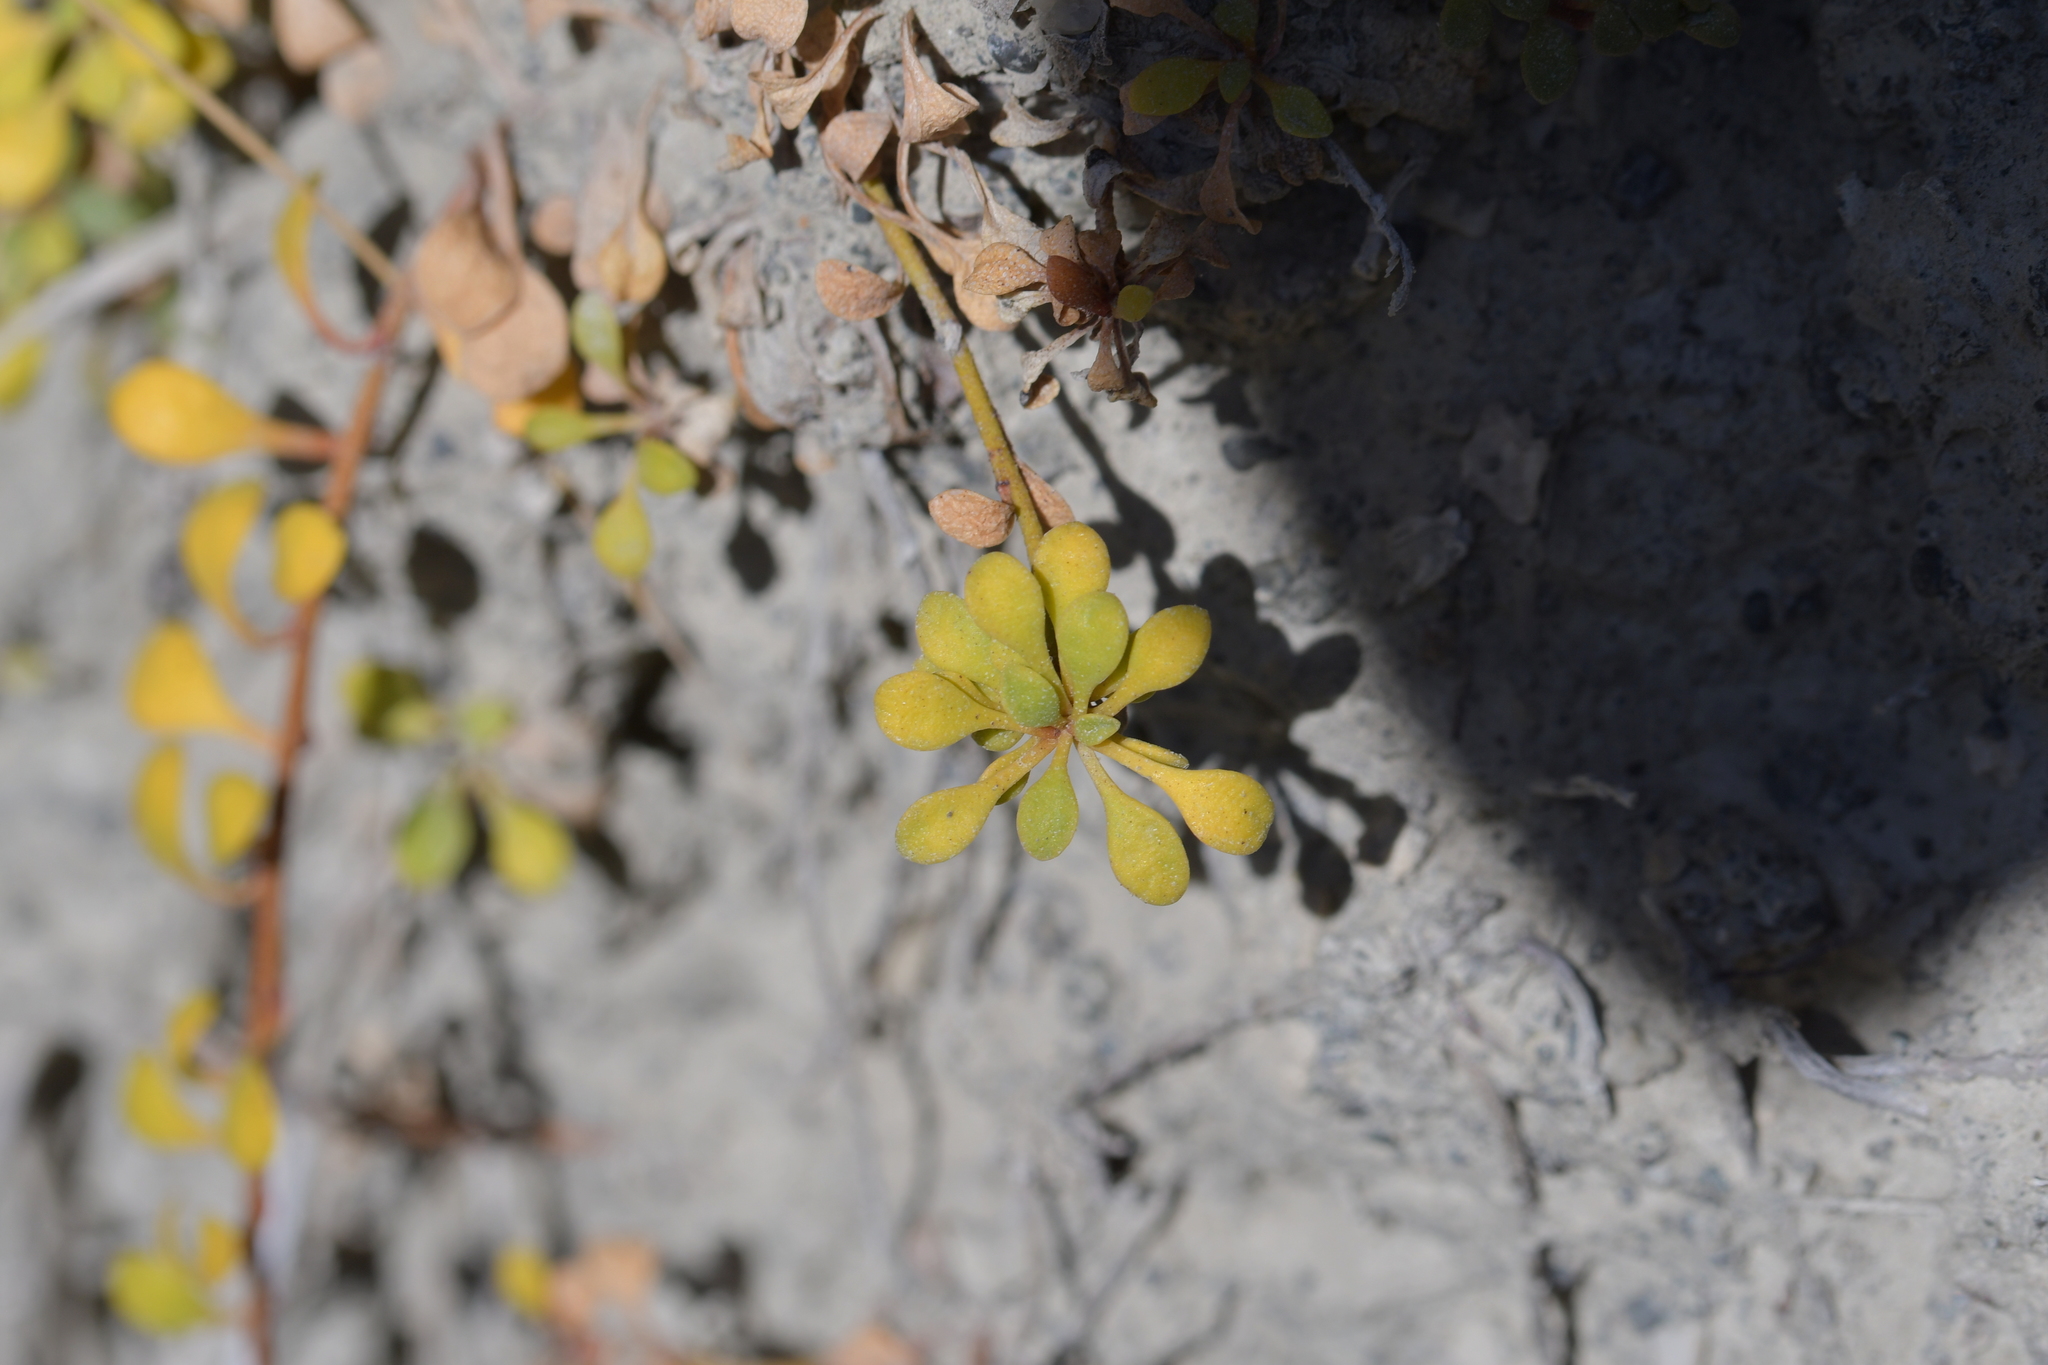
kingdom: Plantae
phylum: Tracheophyta
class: Magnoliopsida
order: Ericales
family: Primulaceae
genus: Samolus
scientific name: Samolus repens
